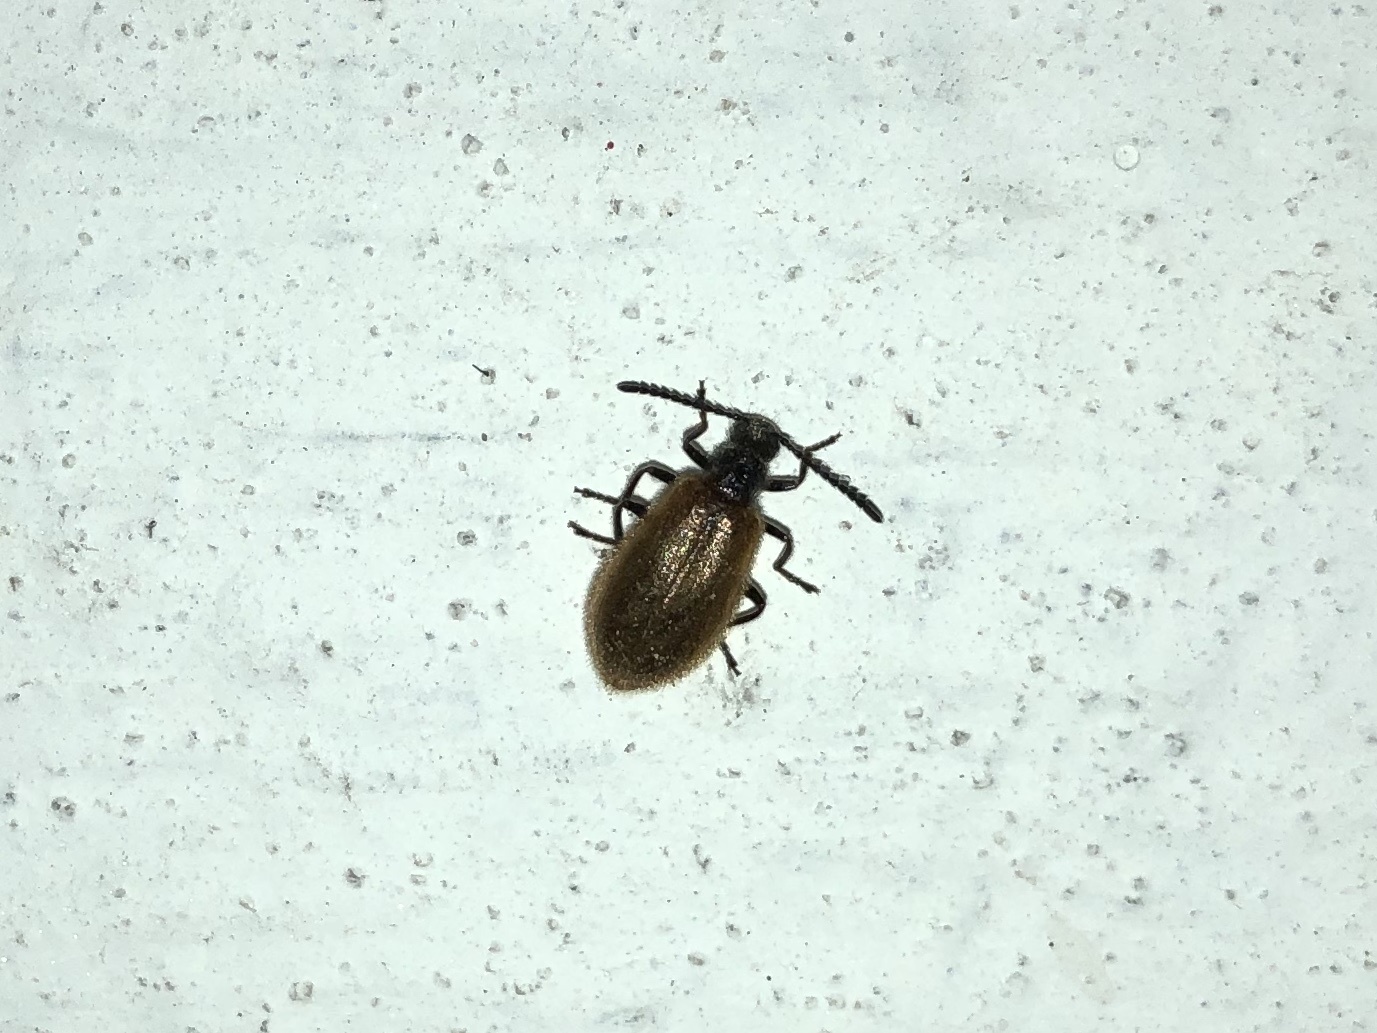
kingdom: Animalia
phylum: Arthropoda
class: Insecta
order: Coleoptera
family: Tenebrionidae
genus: Lagria
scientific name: Lagria hirta
